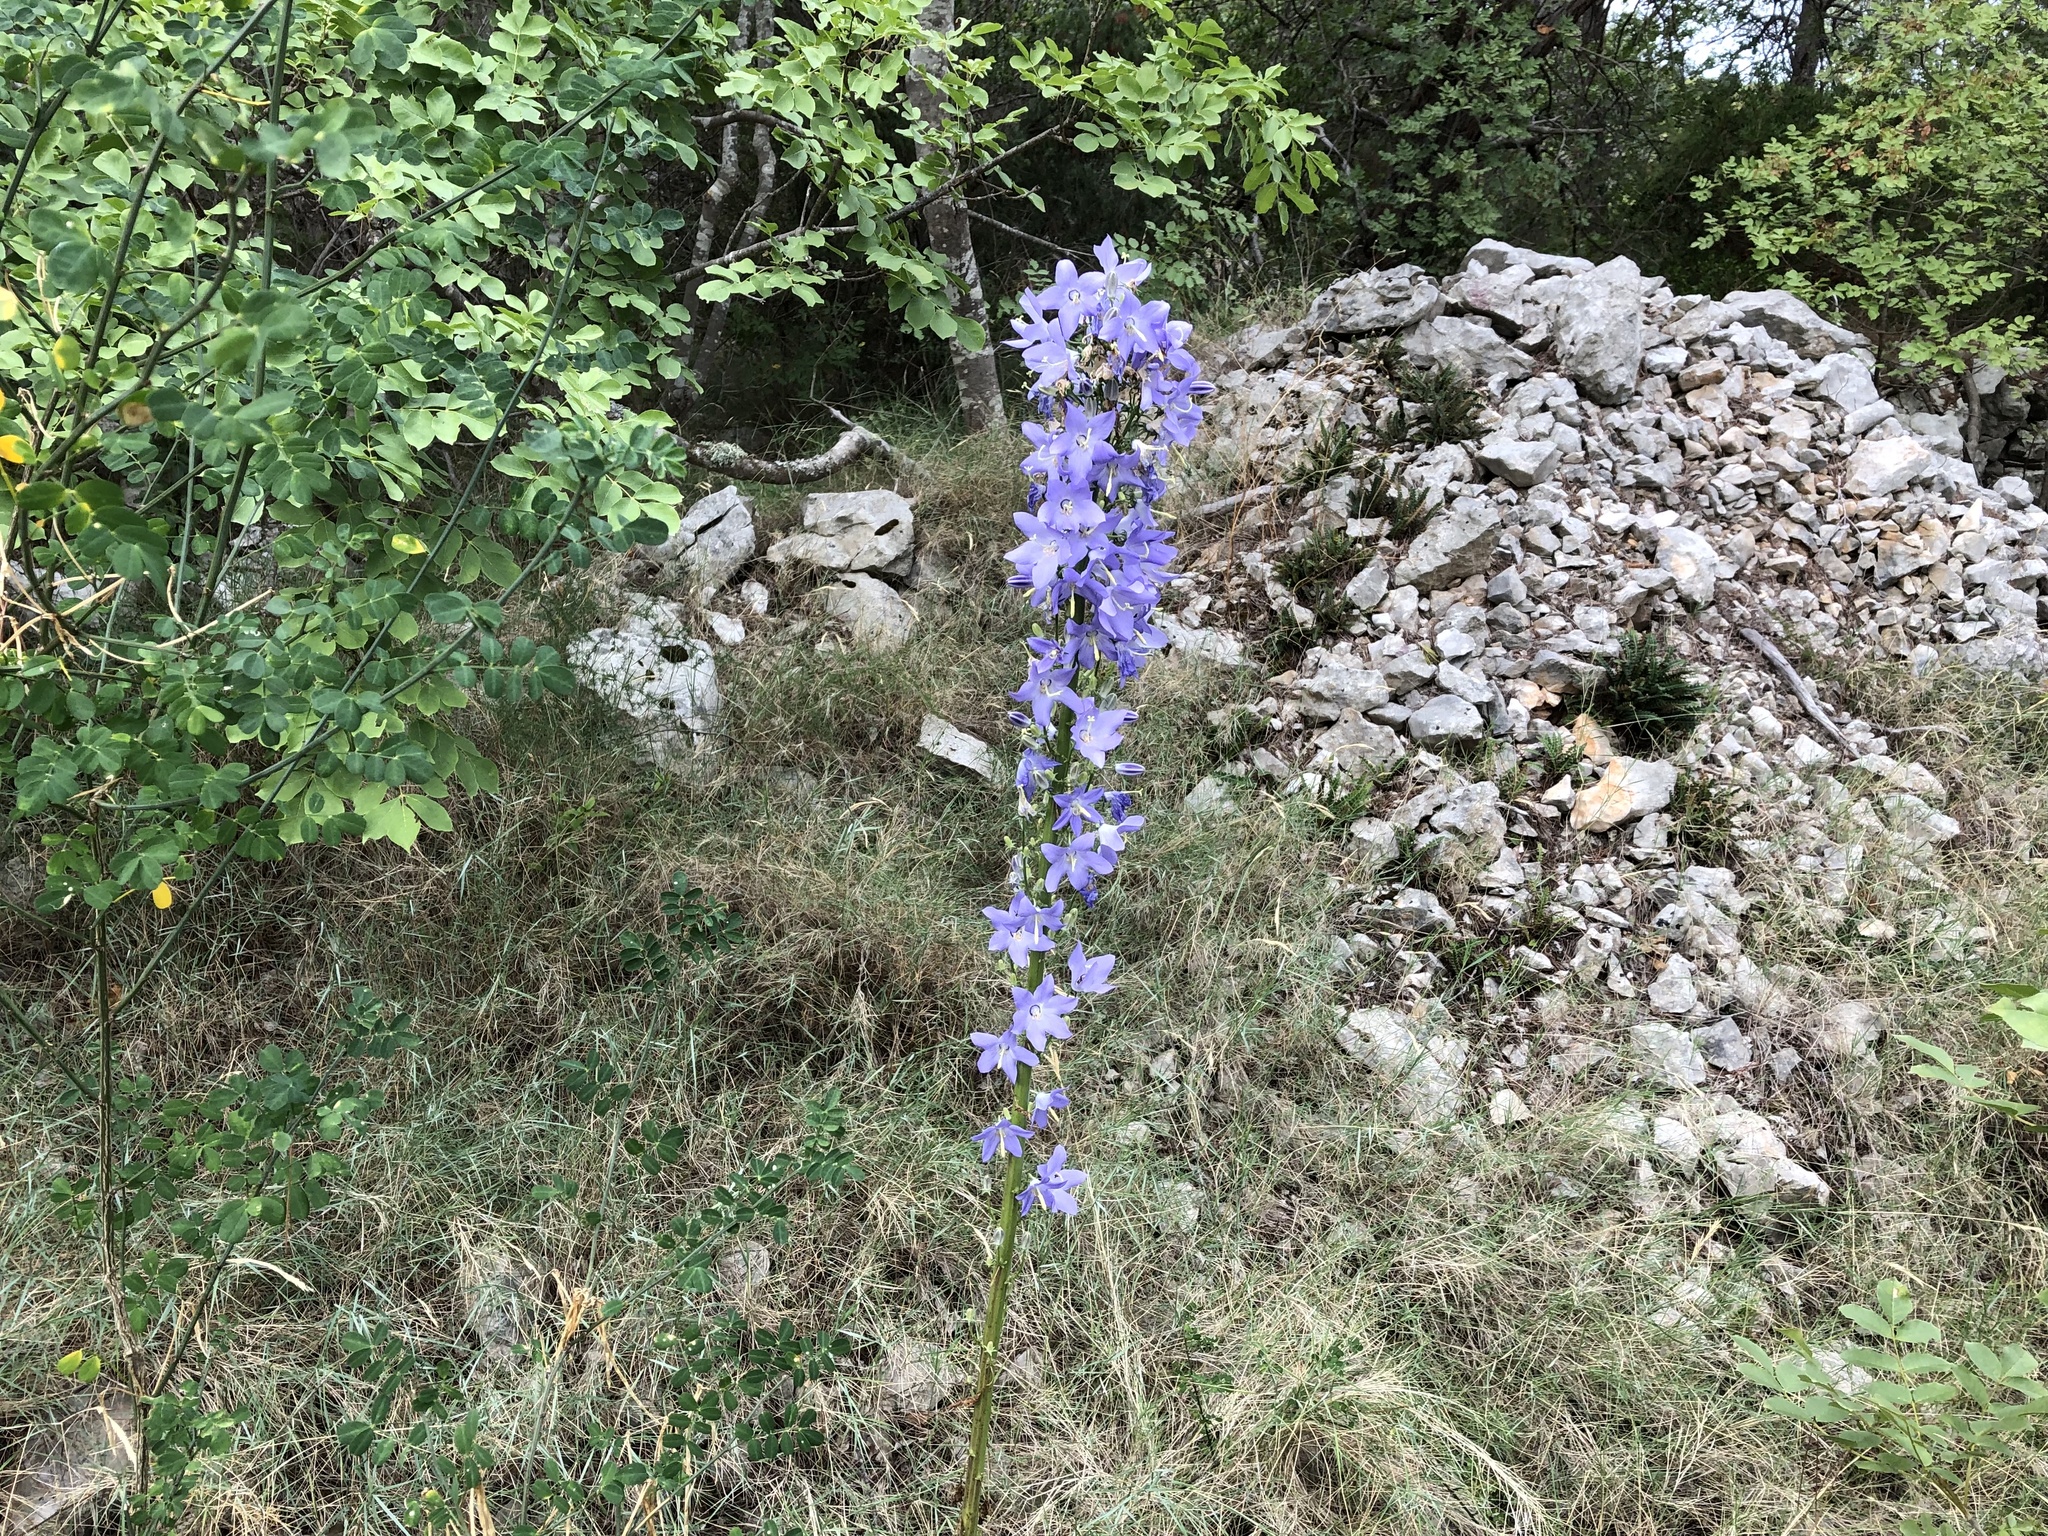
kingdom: Plantae
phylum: Tracheophyta
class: Magnoliopsida
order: Asterales
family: Campanulaceae
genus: Campanula
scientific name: Campanula pyramidalis
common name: Chimney bellflower
